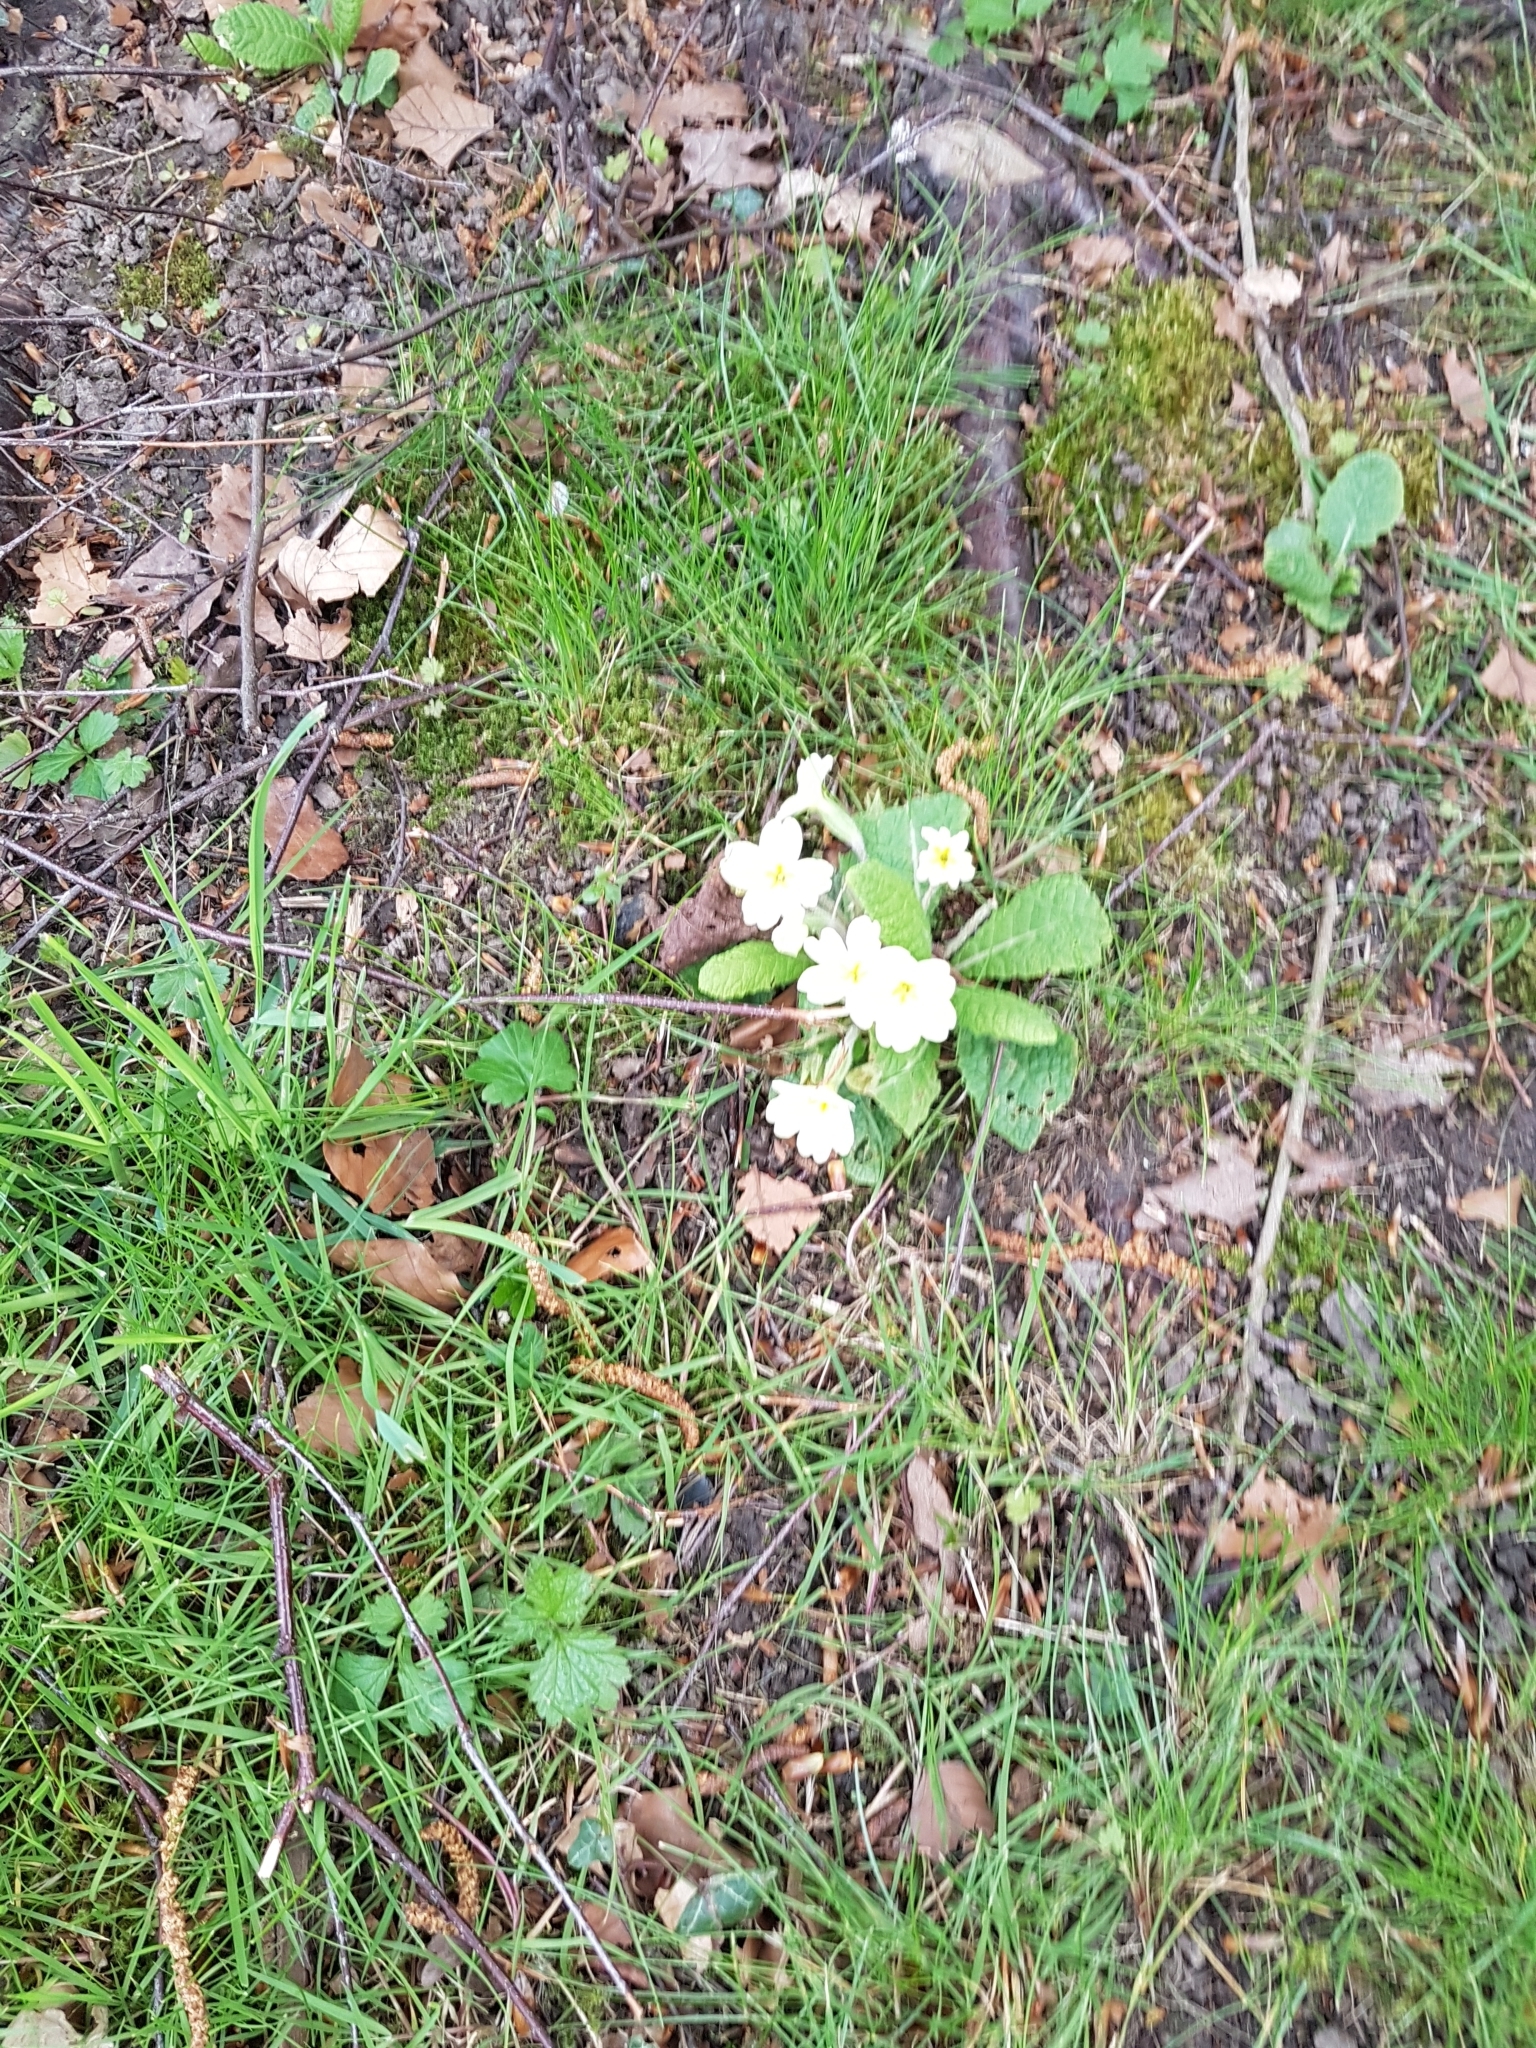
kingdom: Plantae
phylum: Tracheophyta
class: Magnoliopsida
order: Ericales
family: Primulaceae
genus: Primula
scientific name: Primula vulgaris
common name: Primrose
